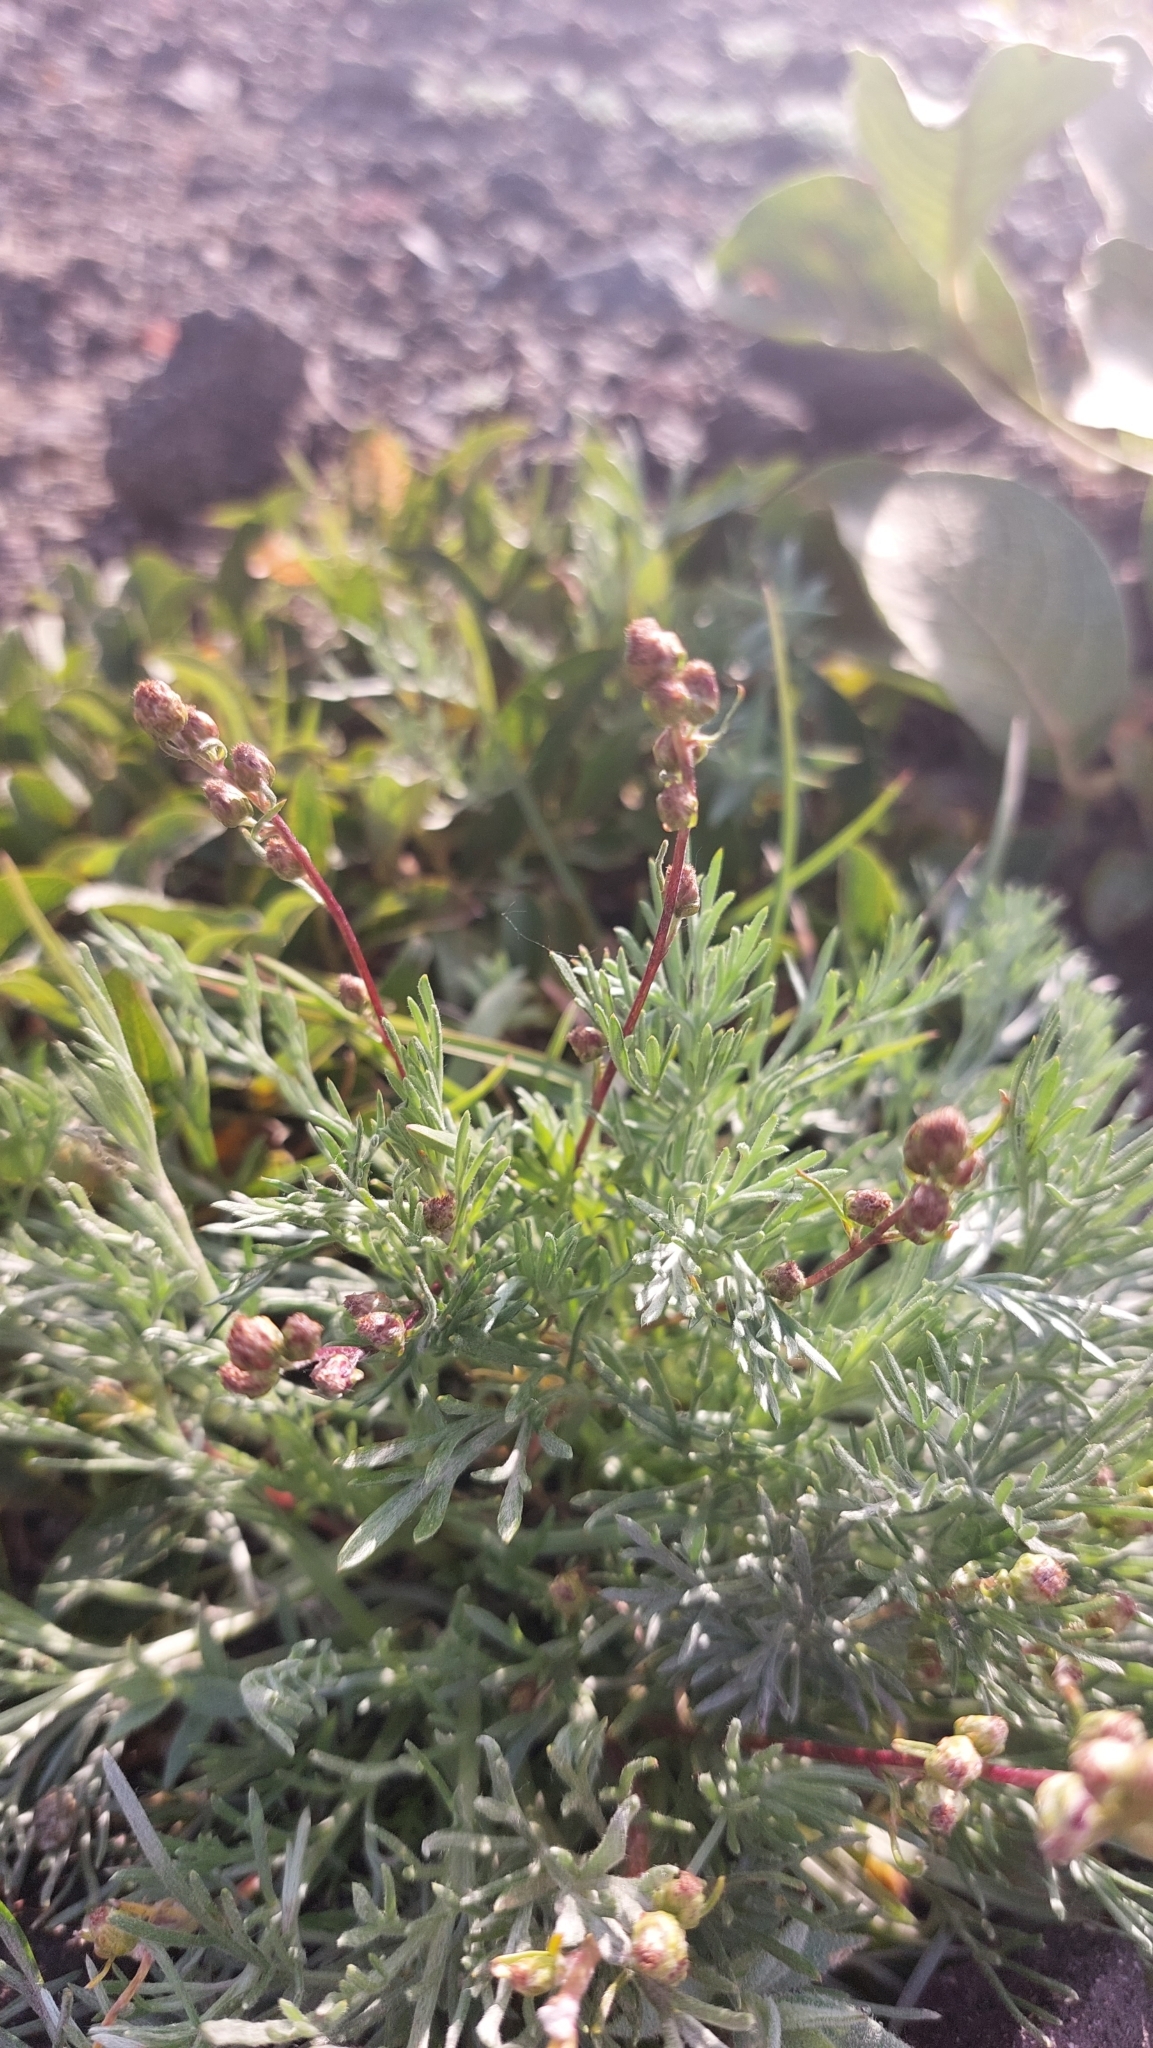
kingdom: Plantae
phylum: Tracheophyta
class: Magnoliopsida
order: Asterales
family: Asteraceae
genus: Artemisia
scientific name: Artemisia borealis
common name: Boreal sage
